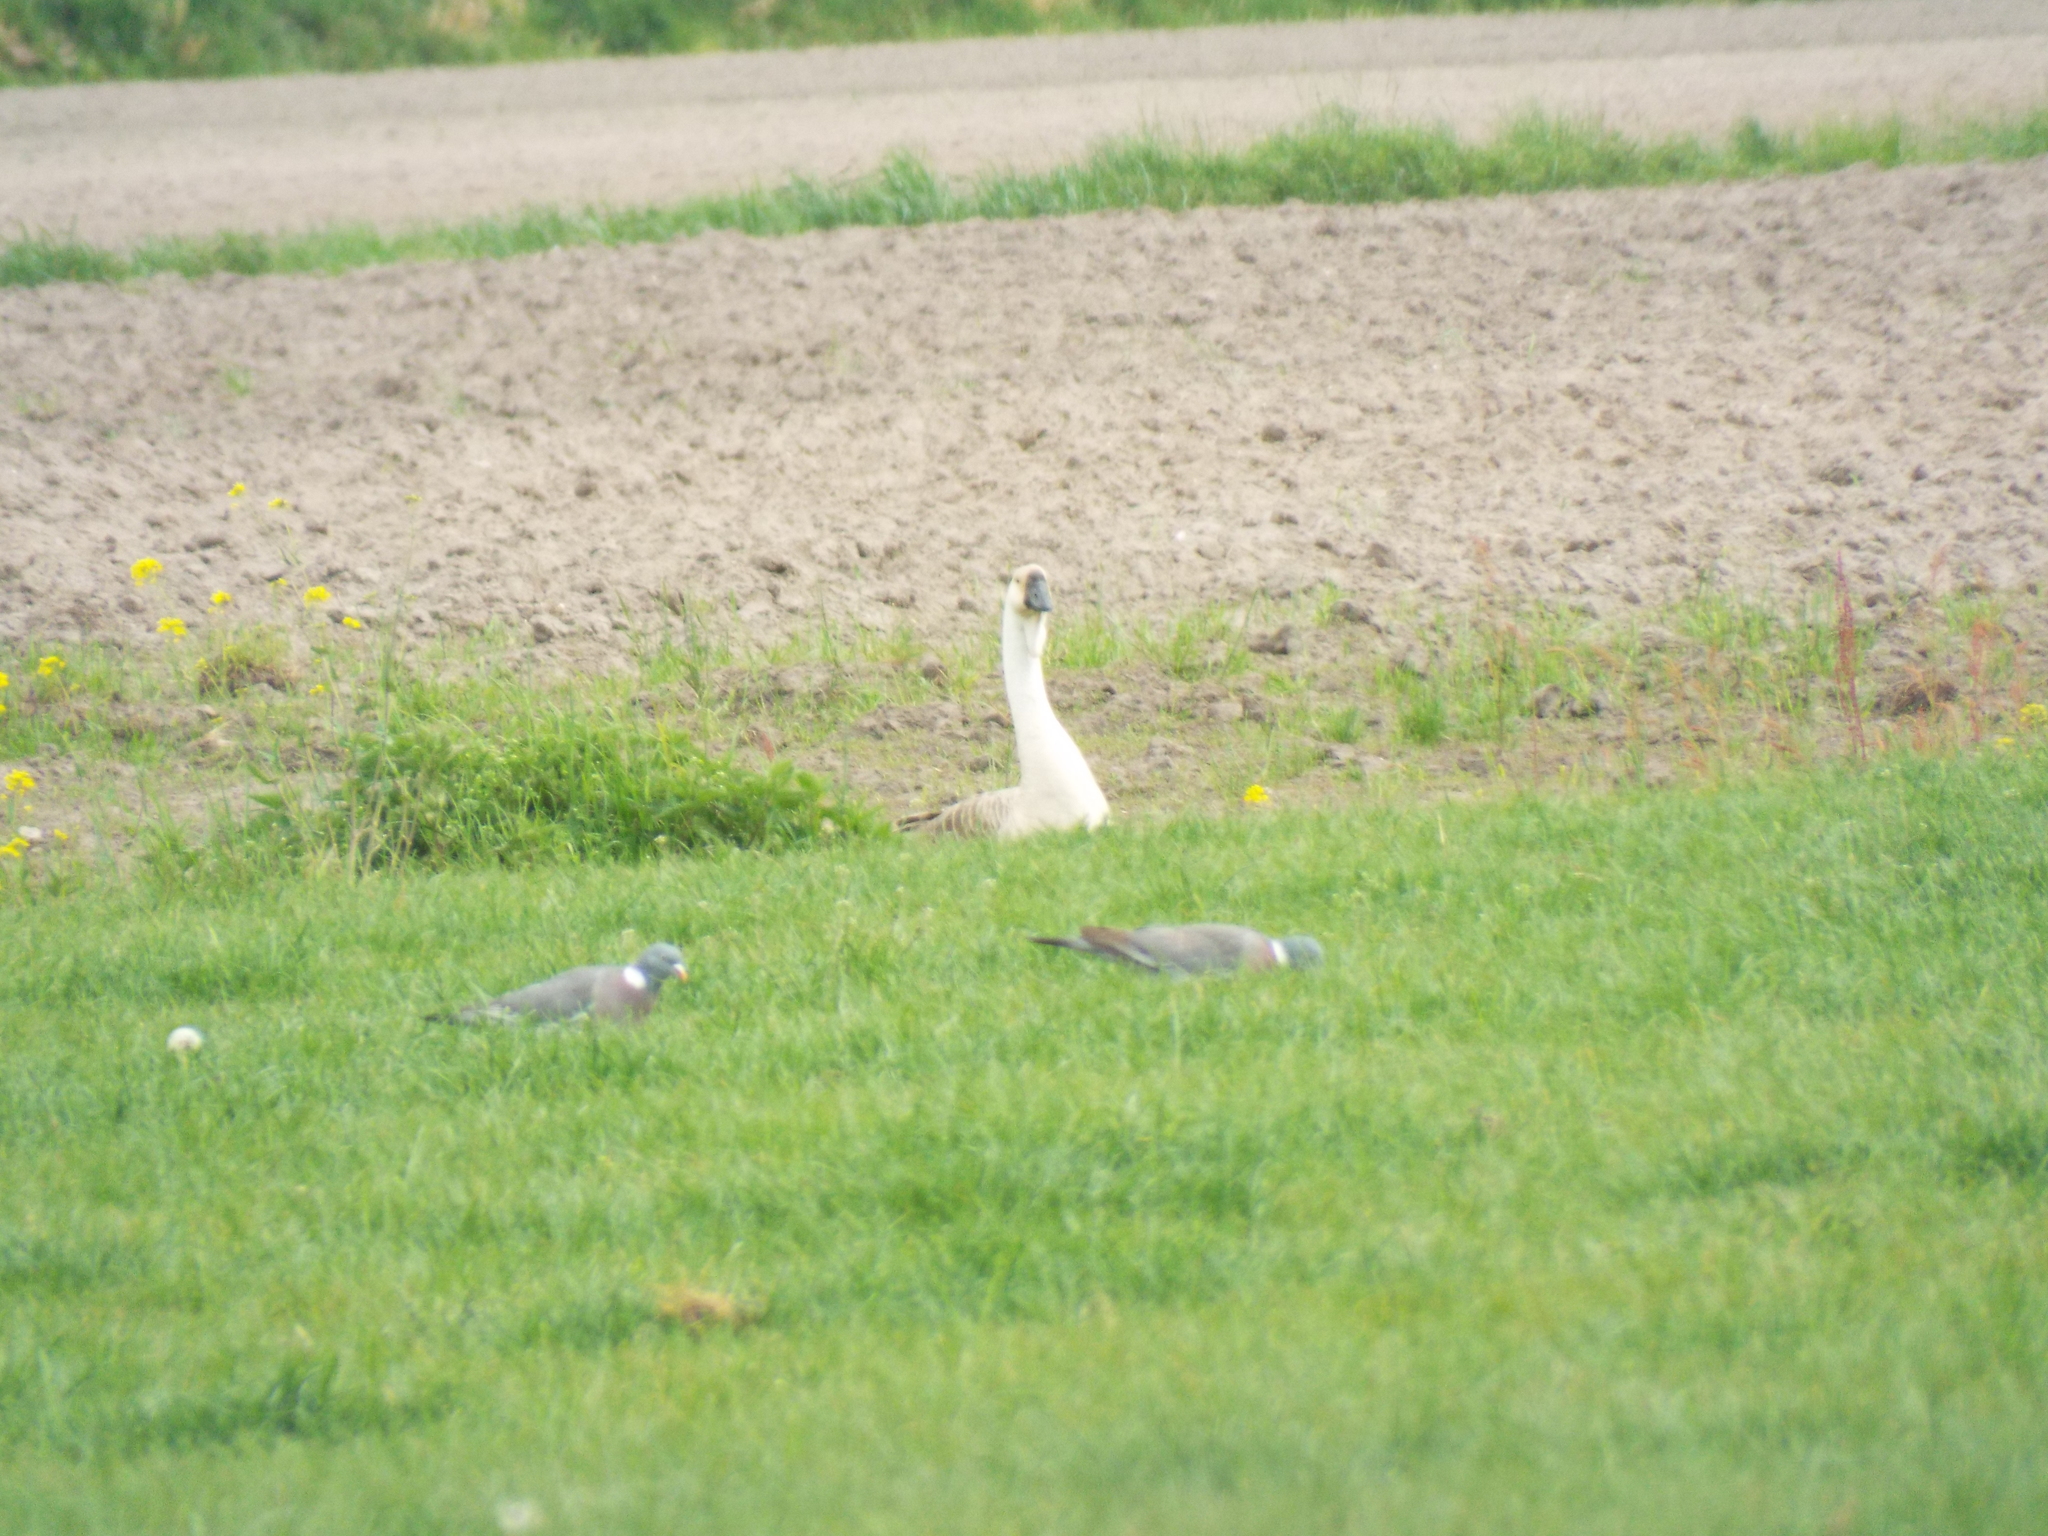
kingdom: Animalia
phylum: Chordata
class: Aves
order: Anseriformes
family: Anatidae
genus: Anser
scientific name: Anser cygnoides
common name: Swan goose
